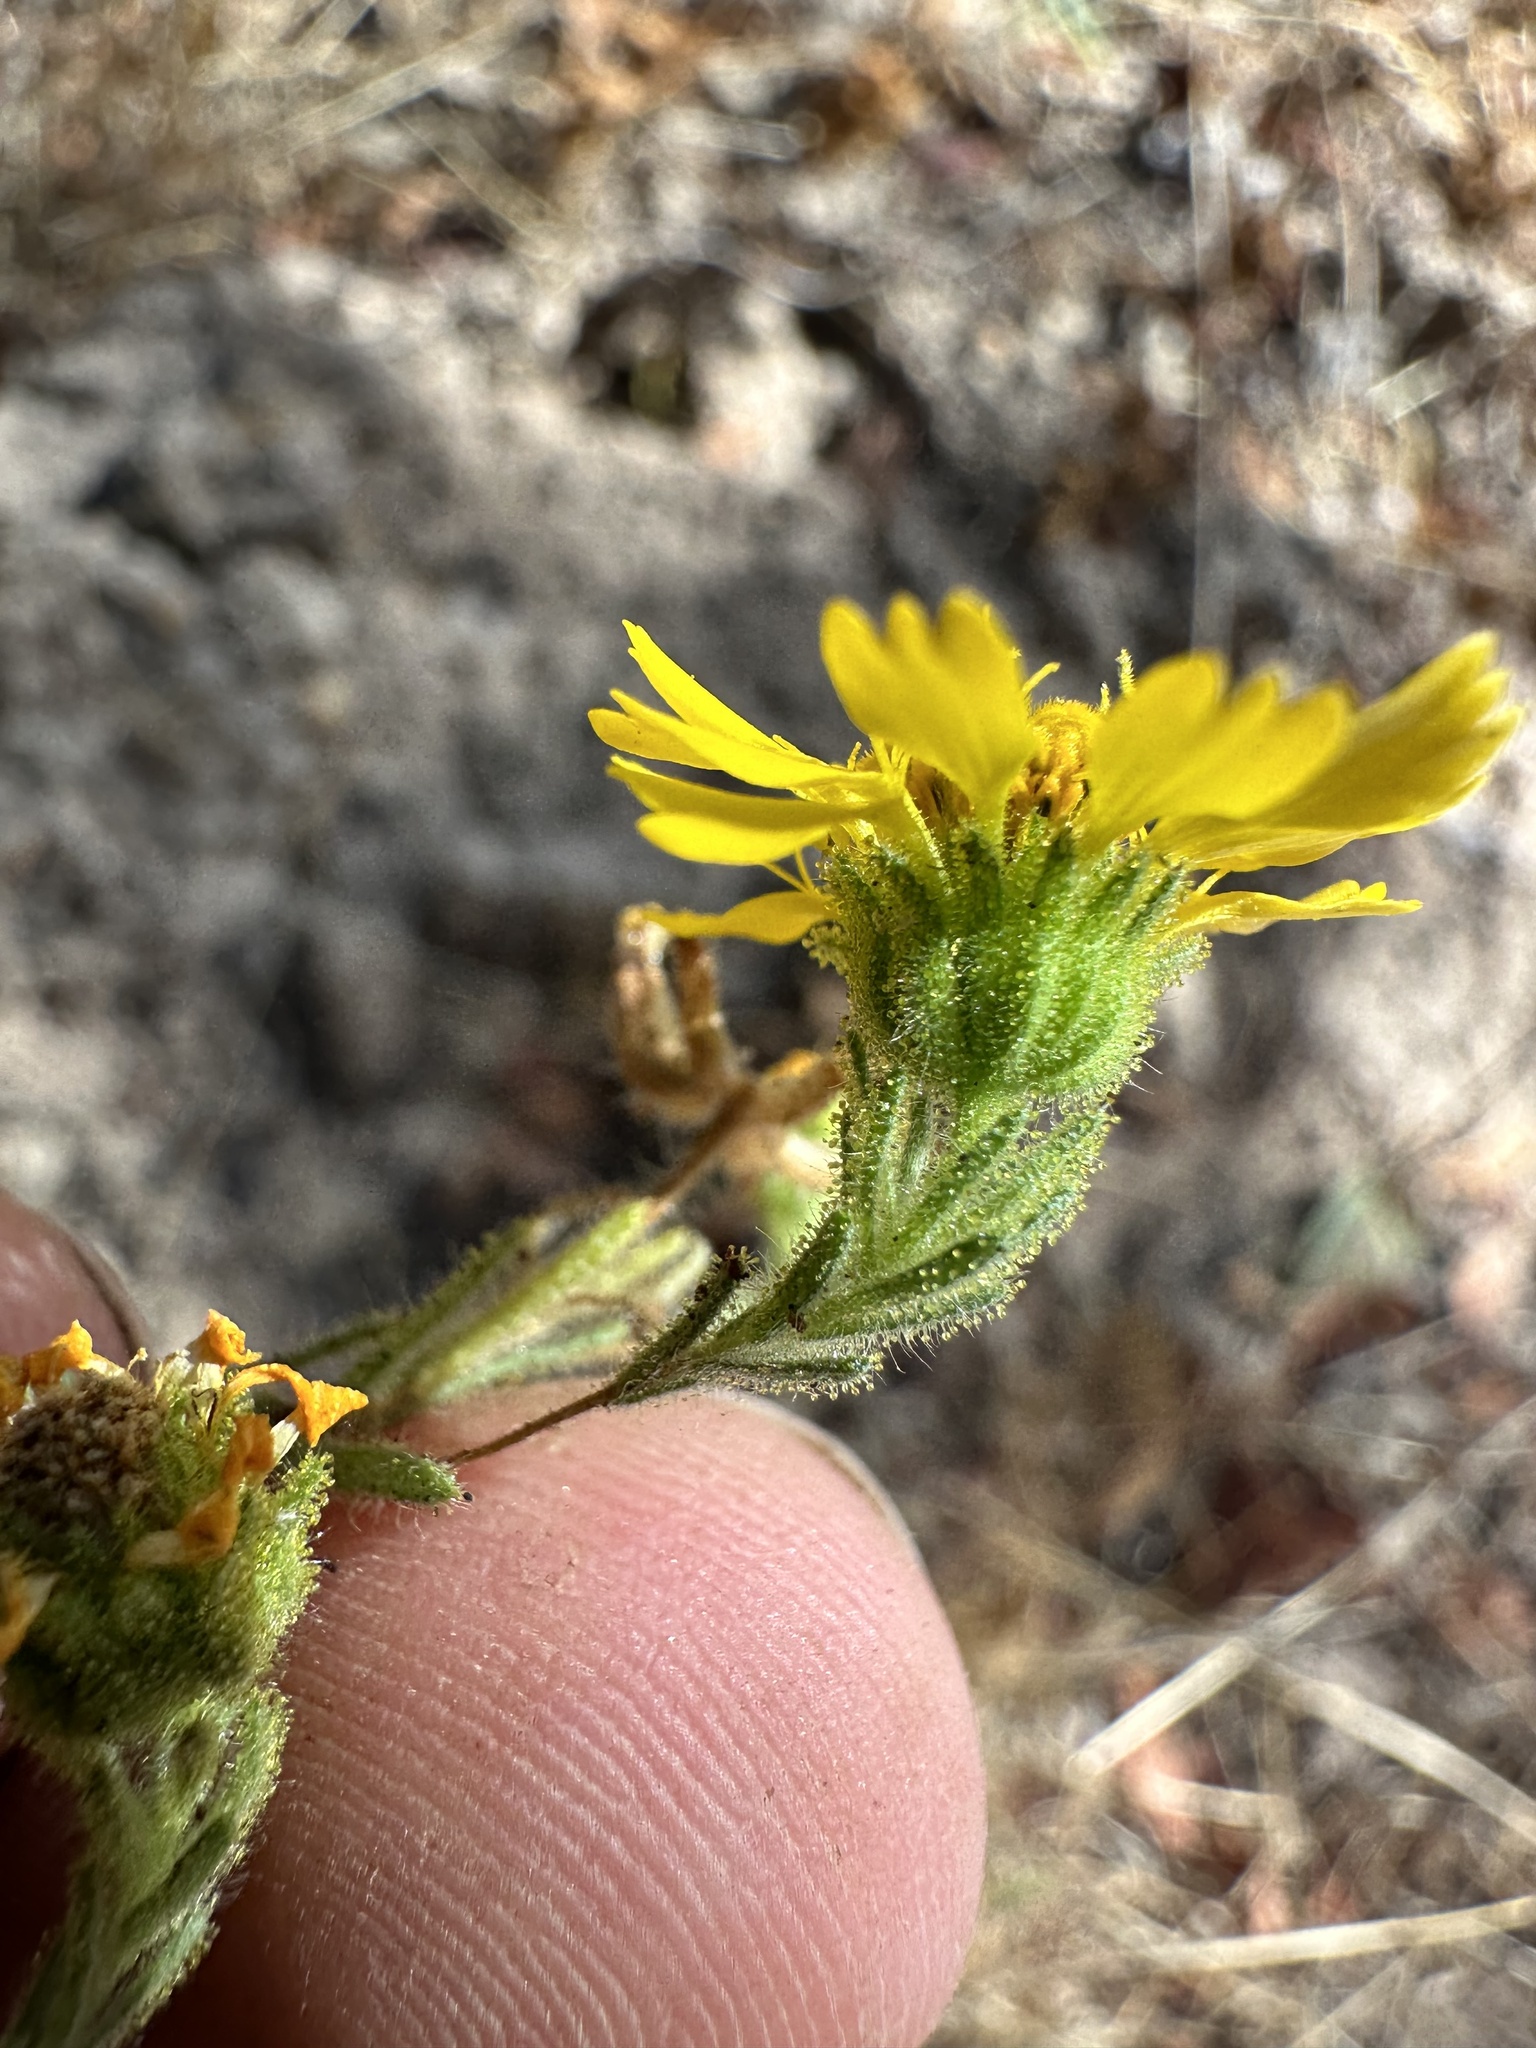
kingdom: Plantae
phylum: Tracheophyta
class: Magnoliopsida
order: Asterales
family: Asteraceae
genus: Deinandra
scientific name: Deinandra corymbosa
